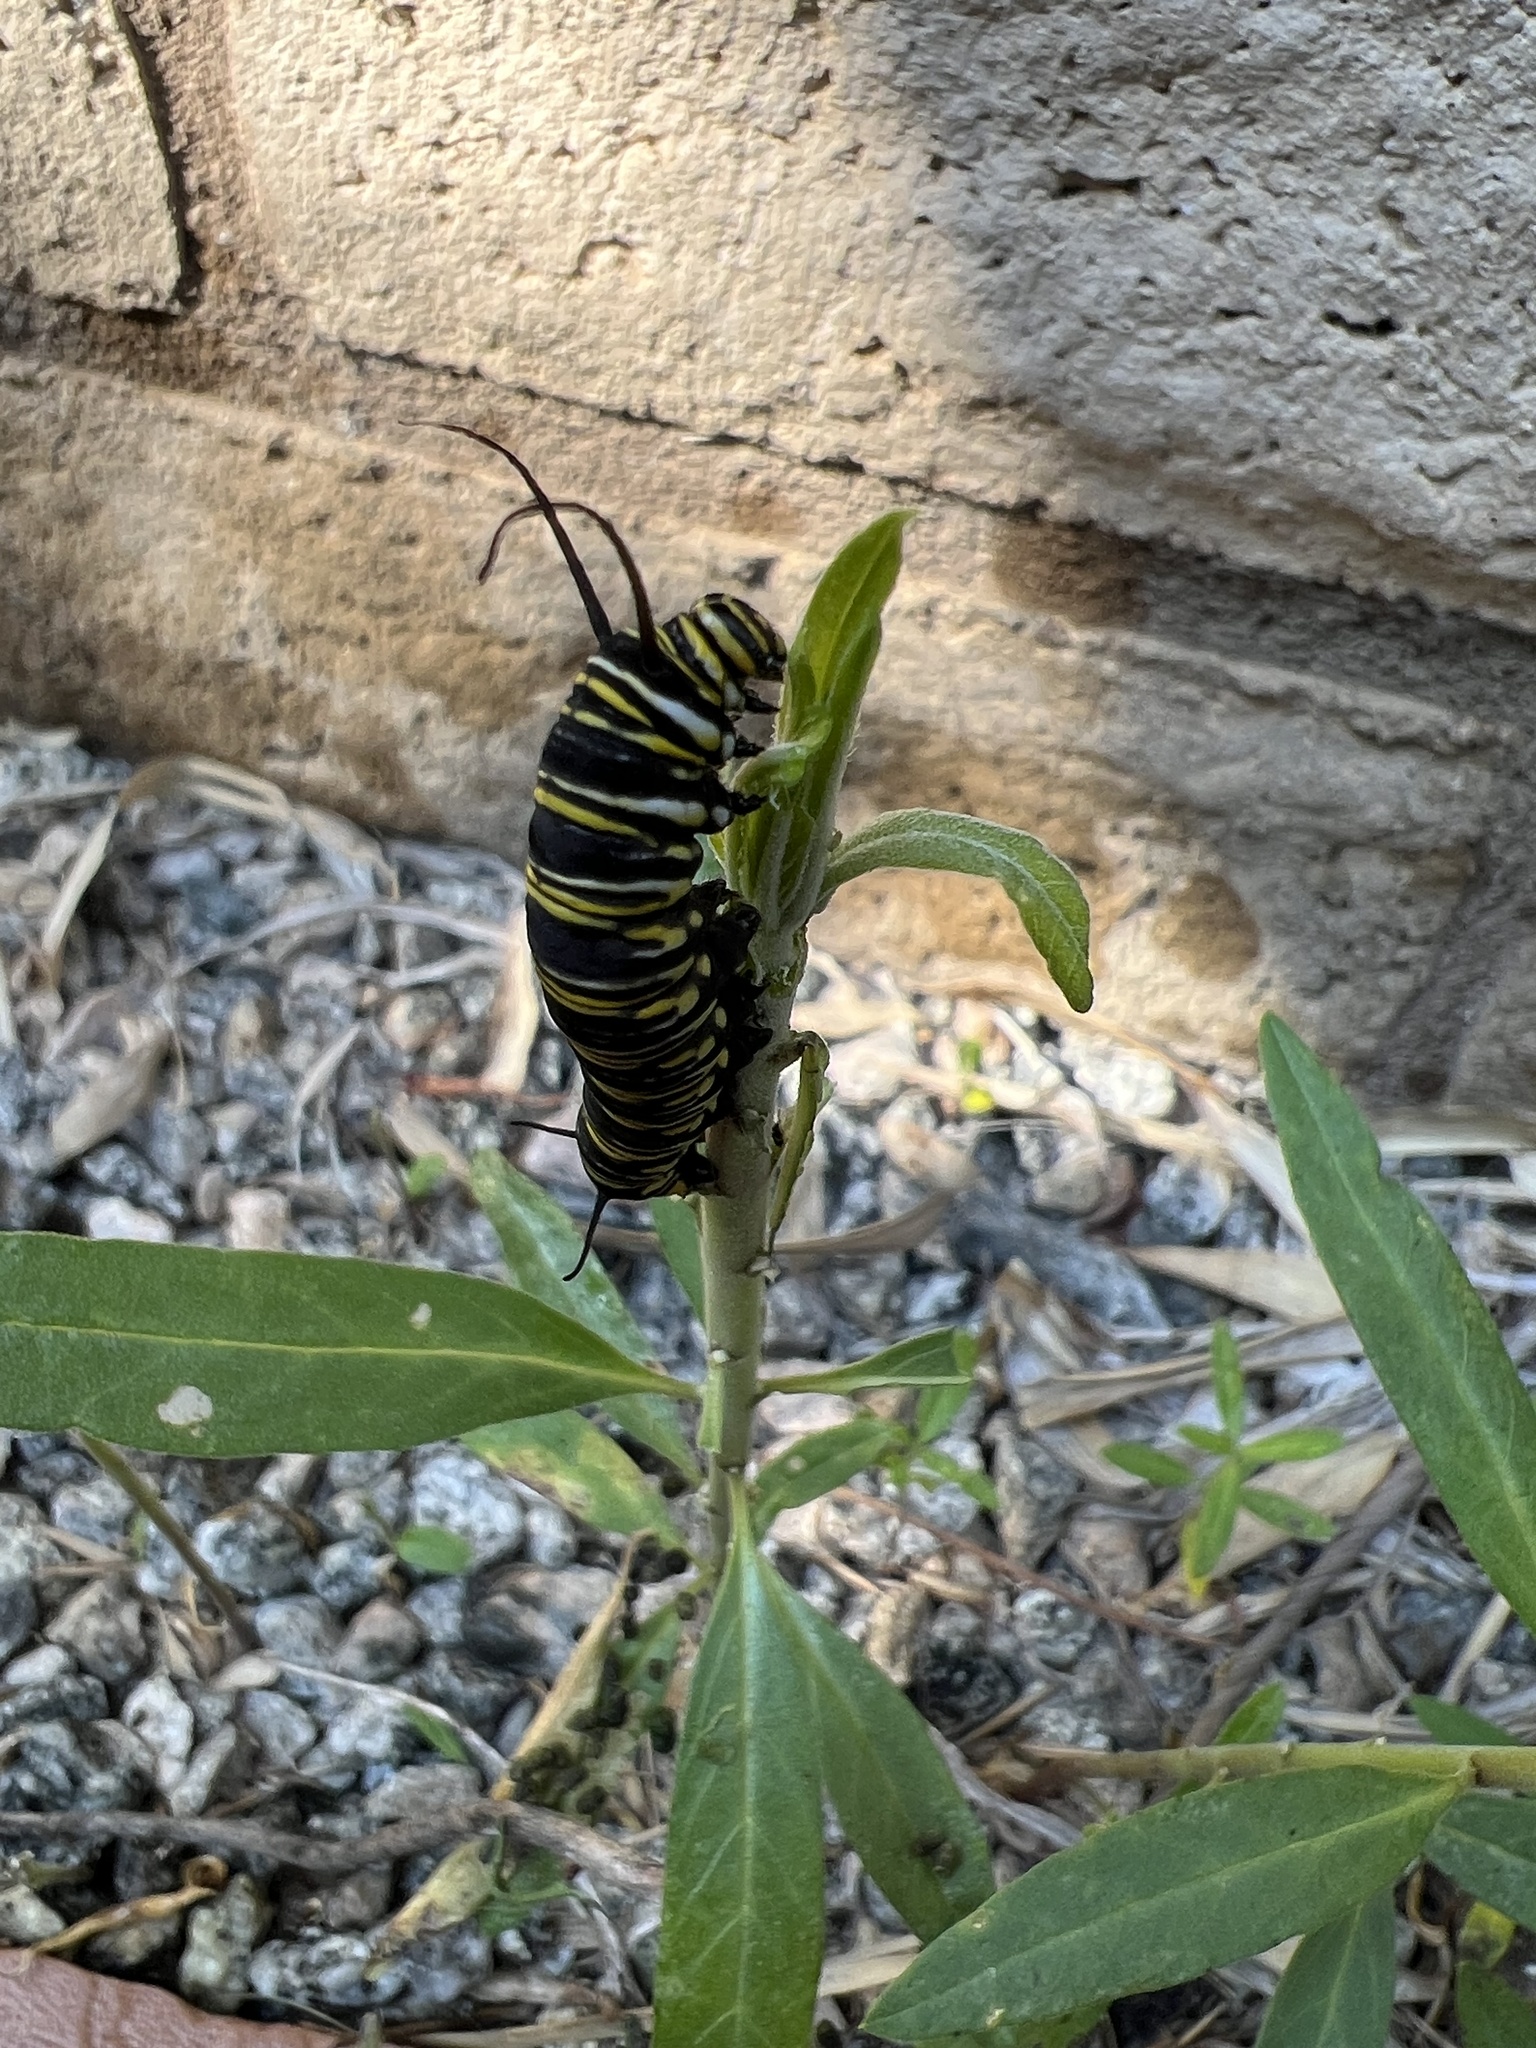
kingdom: Animalia
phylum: Arthropoda
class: Insecta
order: Lepidoptera
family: Nymphalidae
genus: Danaus
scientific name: Danaus plexippus
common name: Monarch
